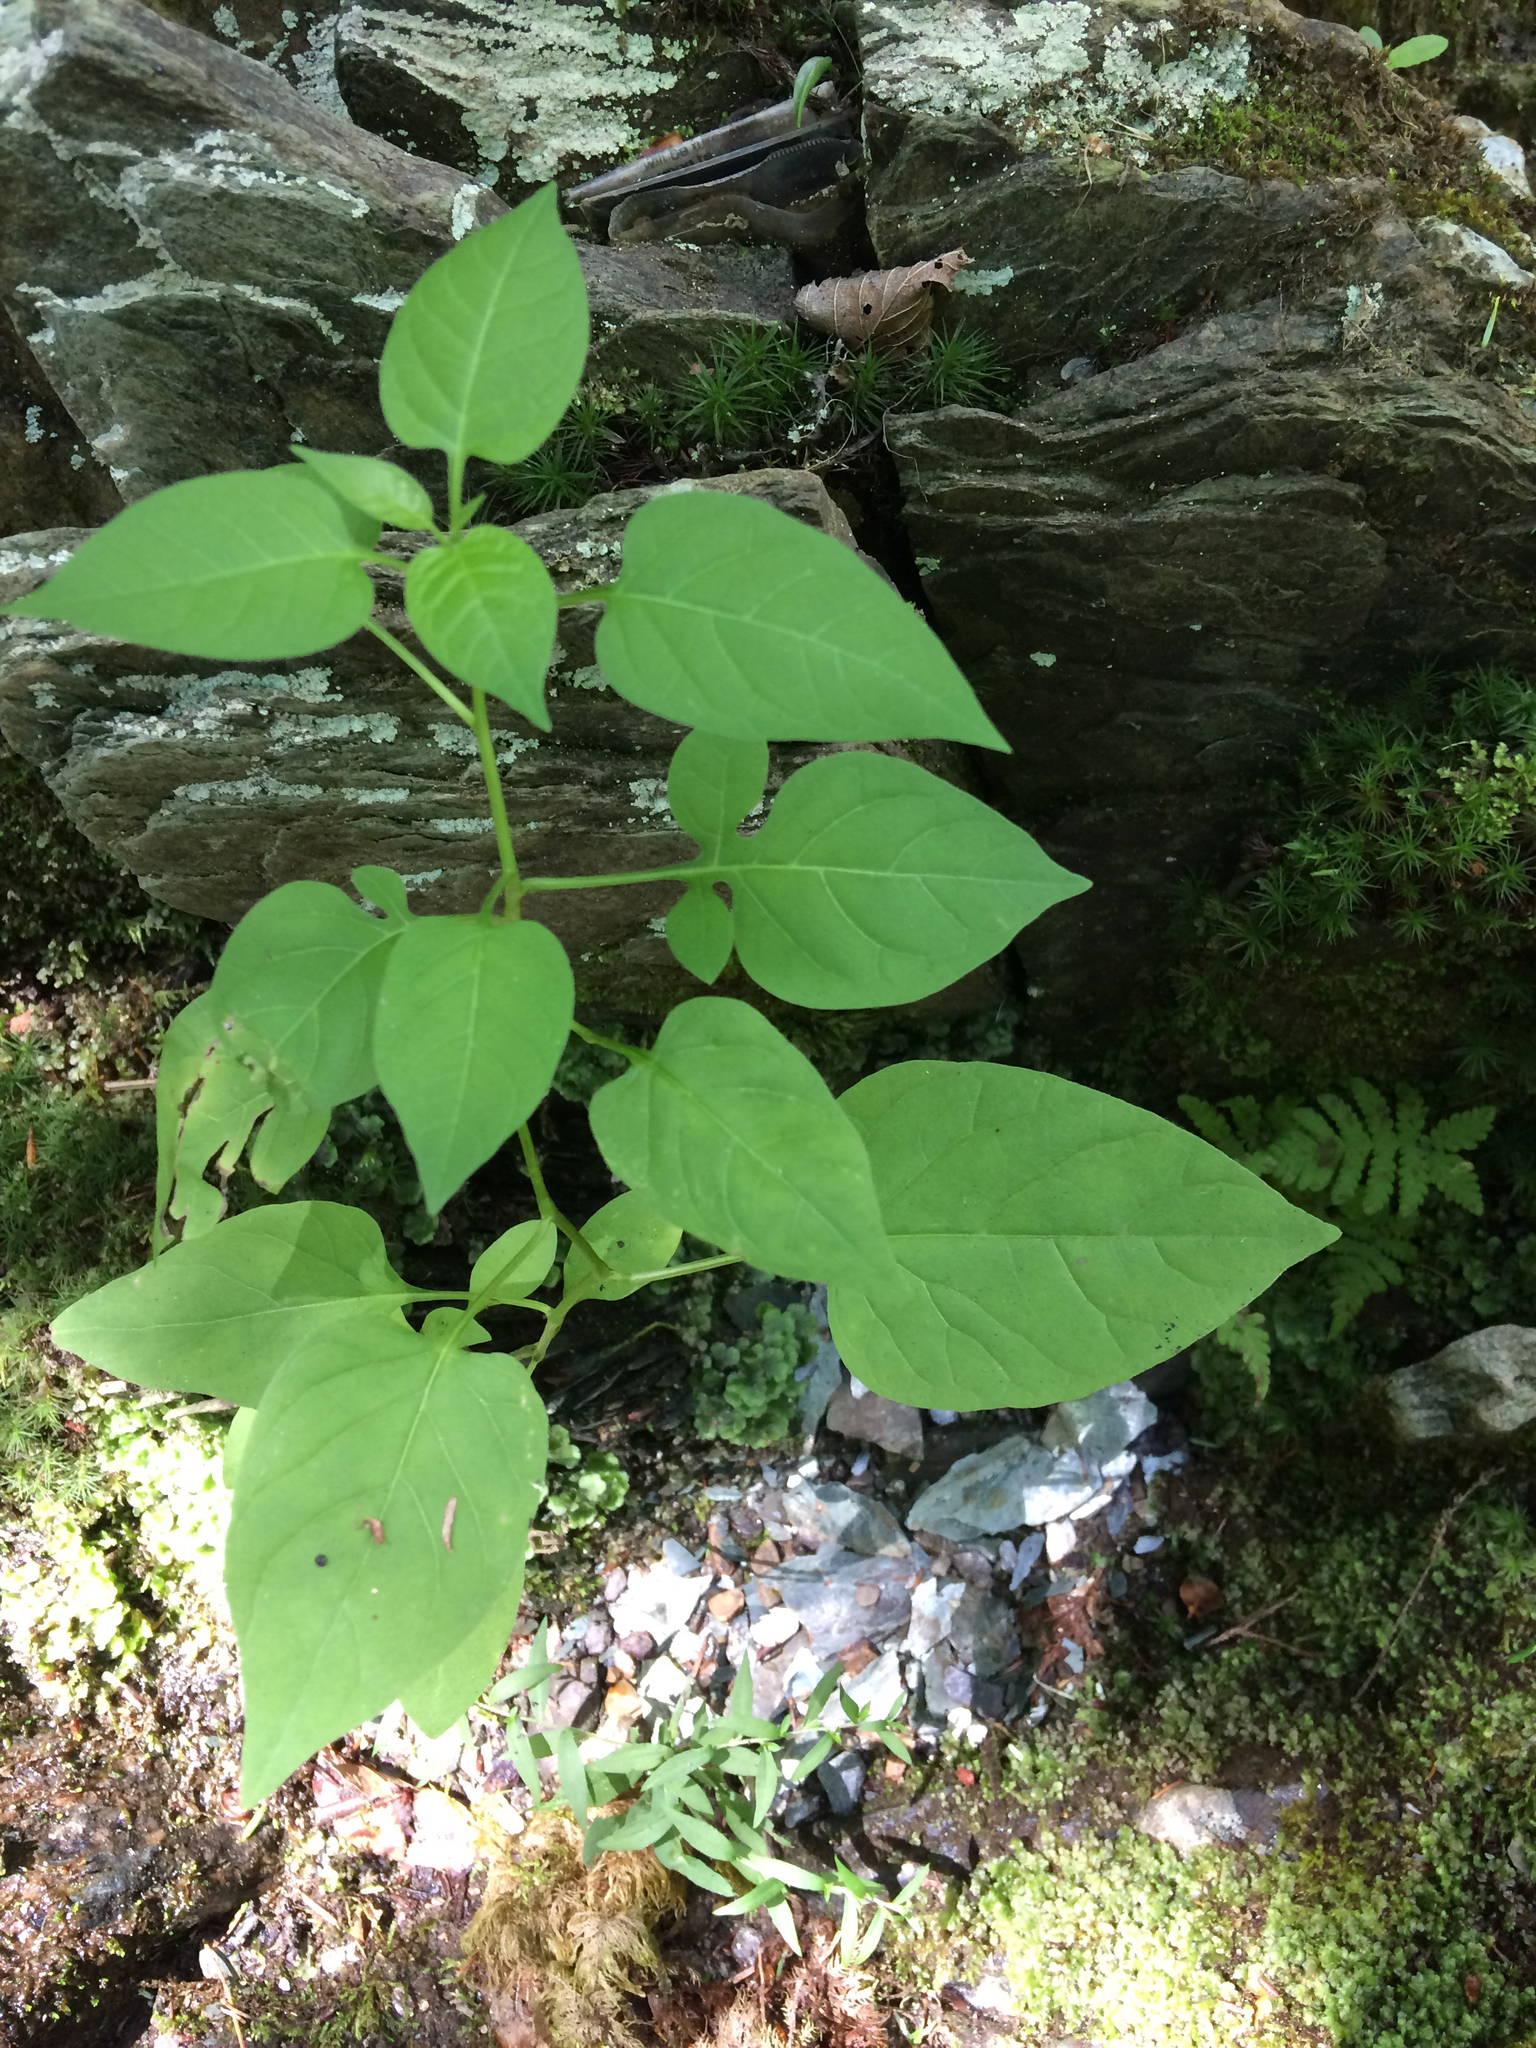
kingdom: Plantae
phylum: Tracheophyta
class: Magnoliopsida
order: Solanales
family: Solanaceae
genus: Solanum
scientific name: Solanum dulcamara
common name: Climbing nightshade
